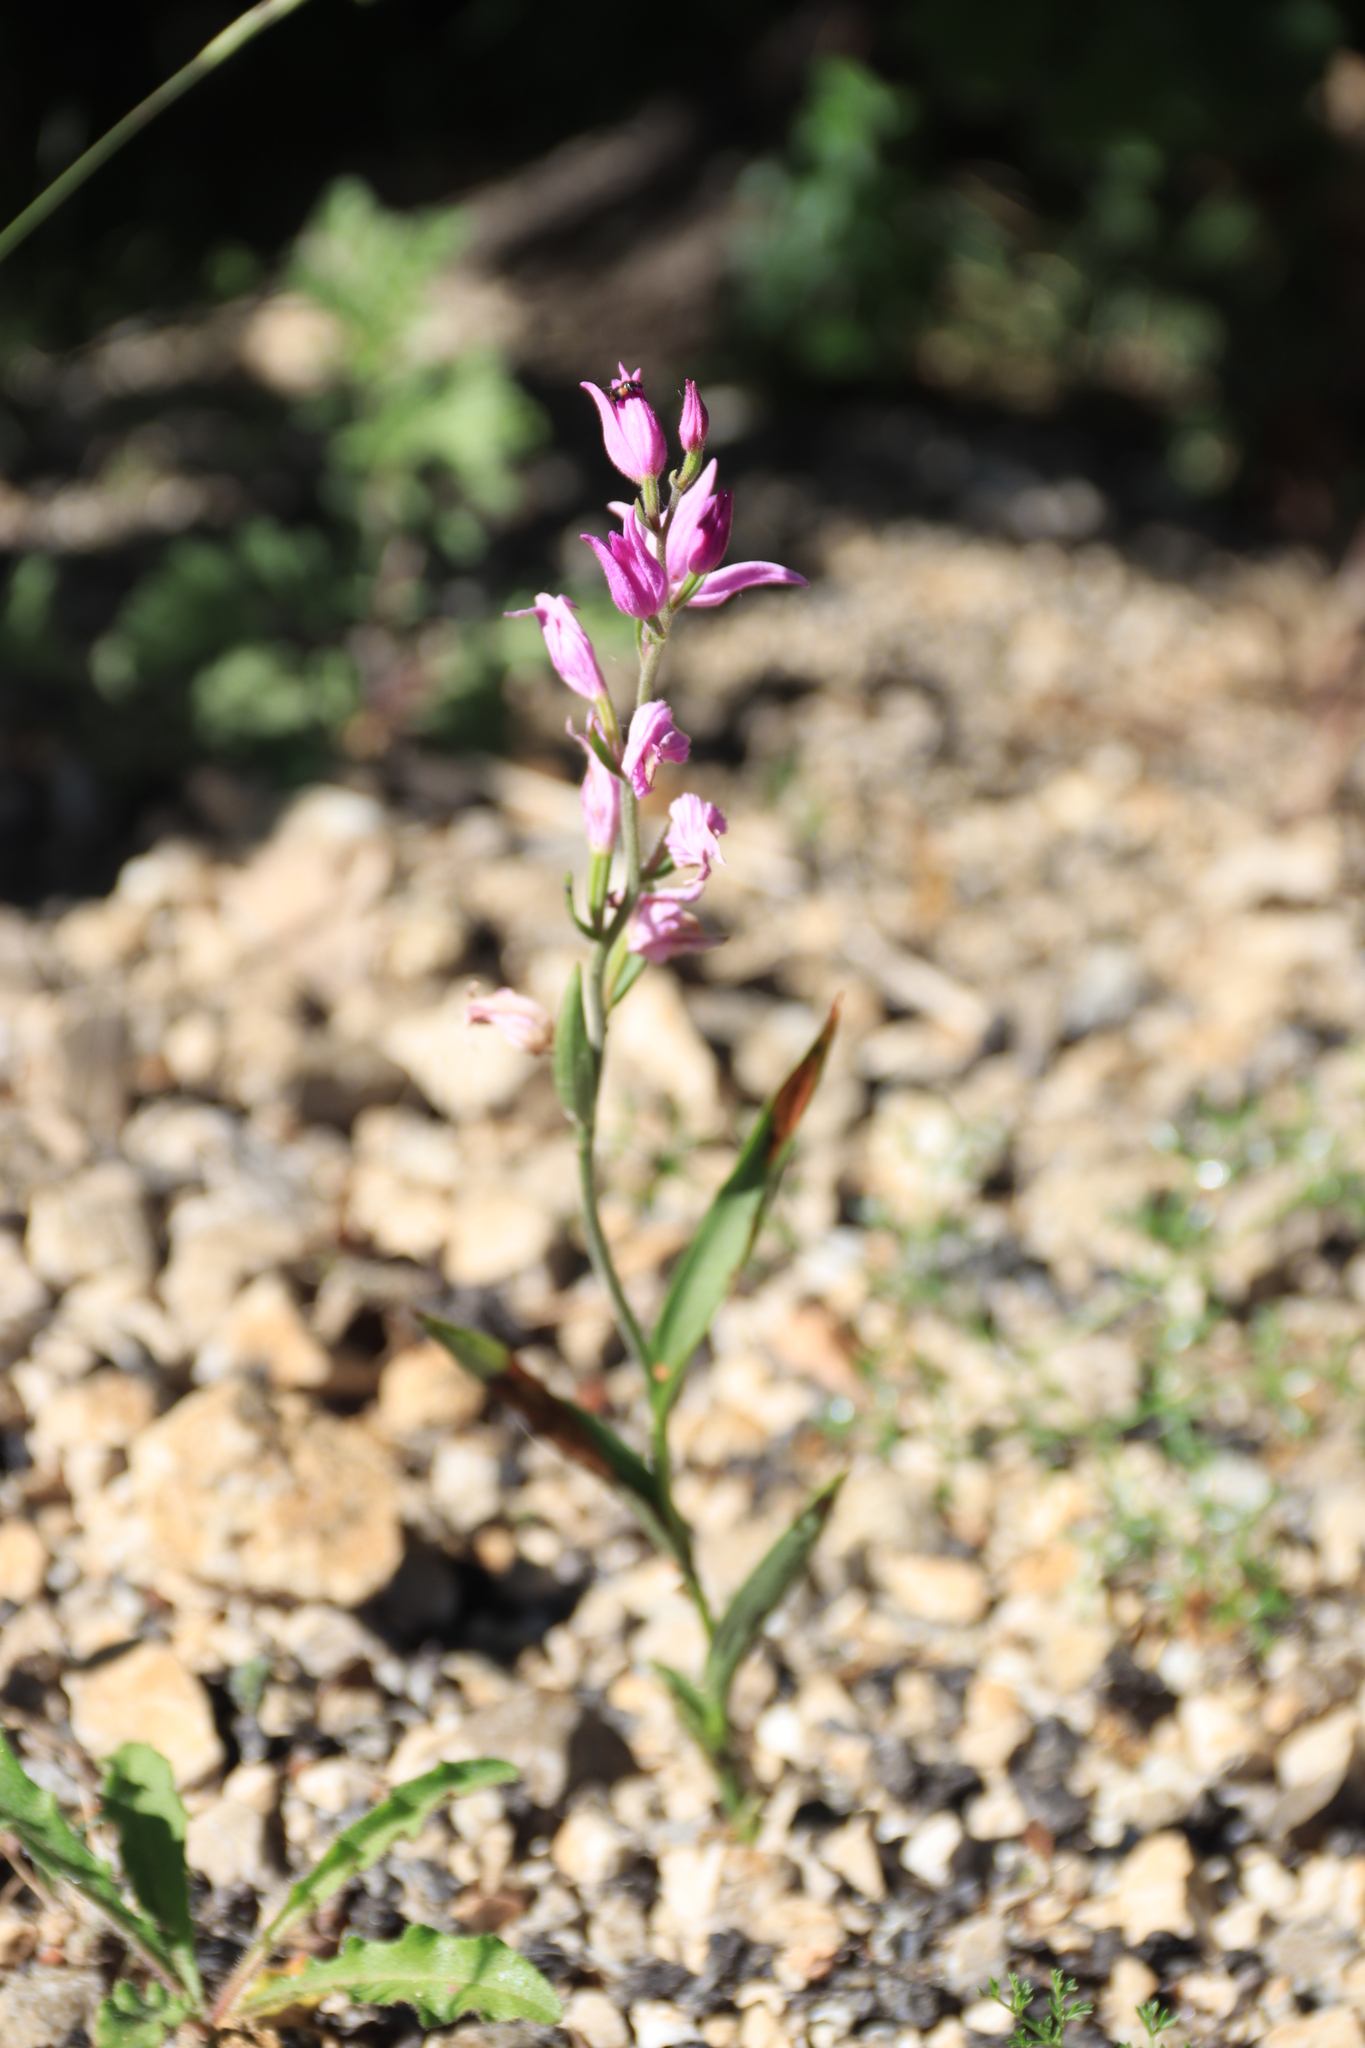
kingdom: Plantae
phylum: Tracheophyta
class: Liliopsida
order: Asparagales
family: Orchidaceae
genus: Cephalanthera
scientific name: Cephalanthera rubra
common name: Red helleborine
